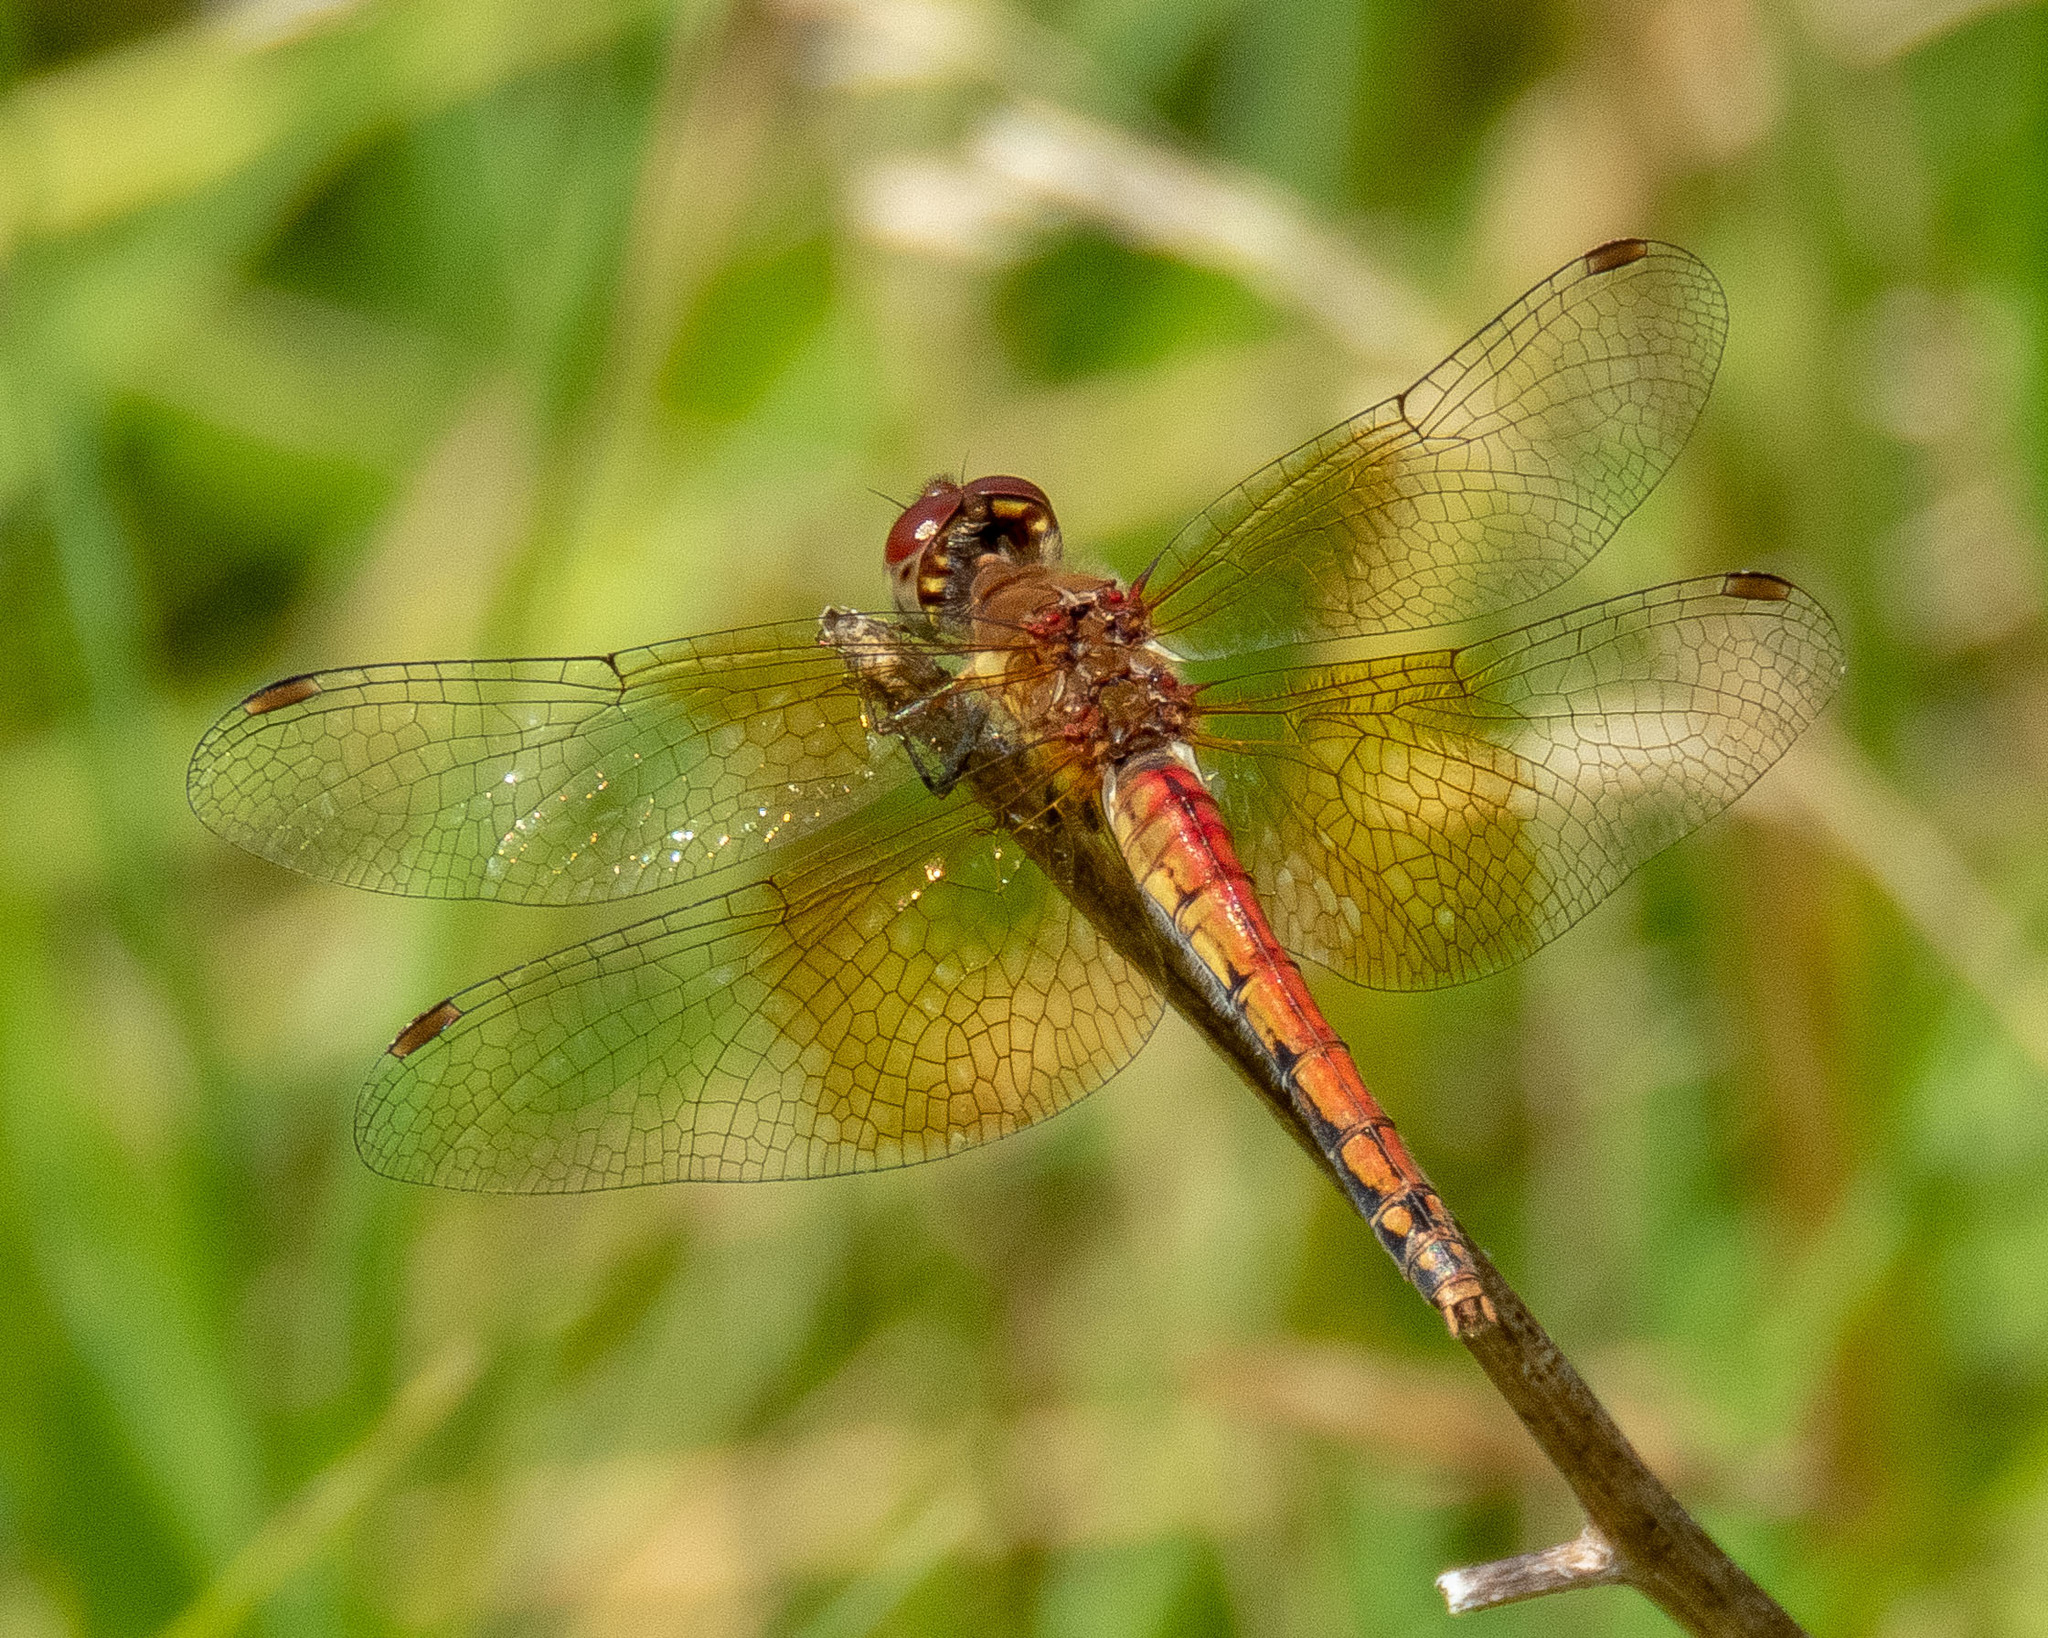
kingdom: Animalia
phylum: Arthropoda
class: Insecta
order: Odonata
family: Libellulidae
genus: Sympetrum
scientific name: Sympetrum semicinctum
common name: Band-winged meadowhawk
